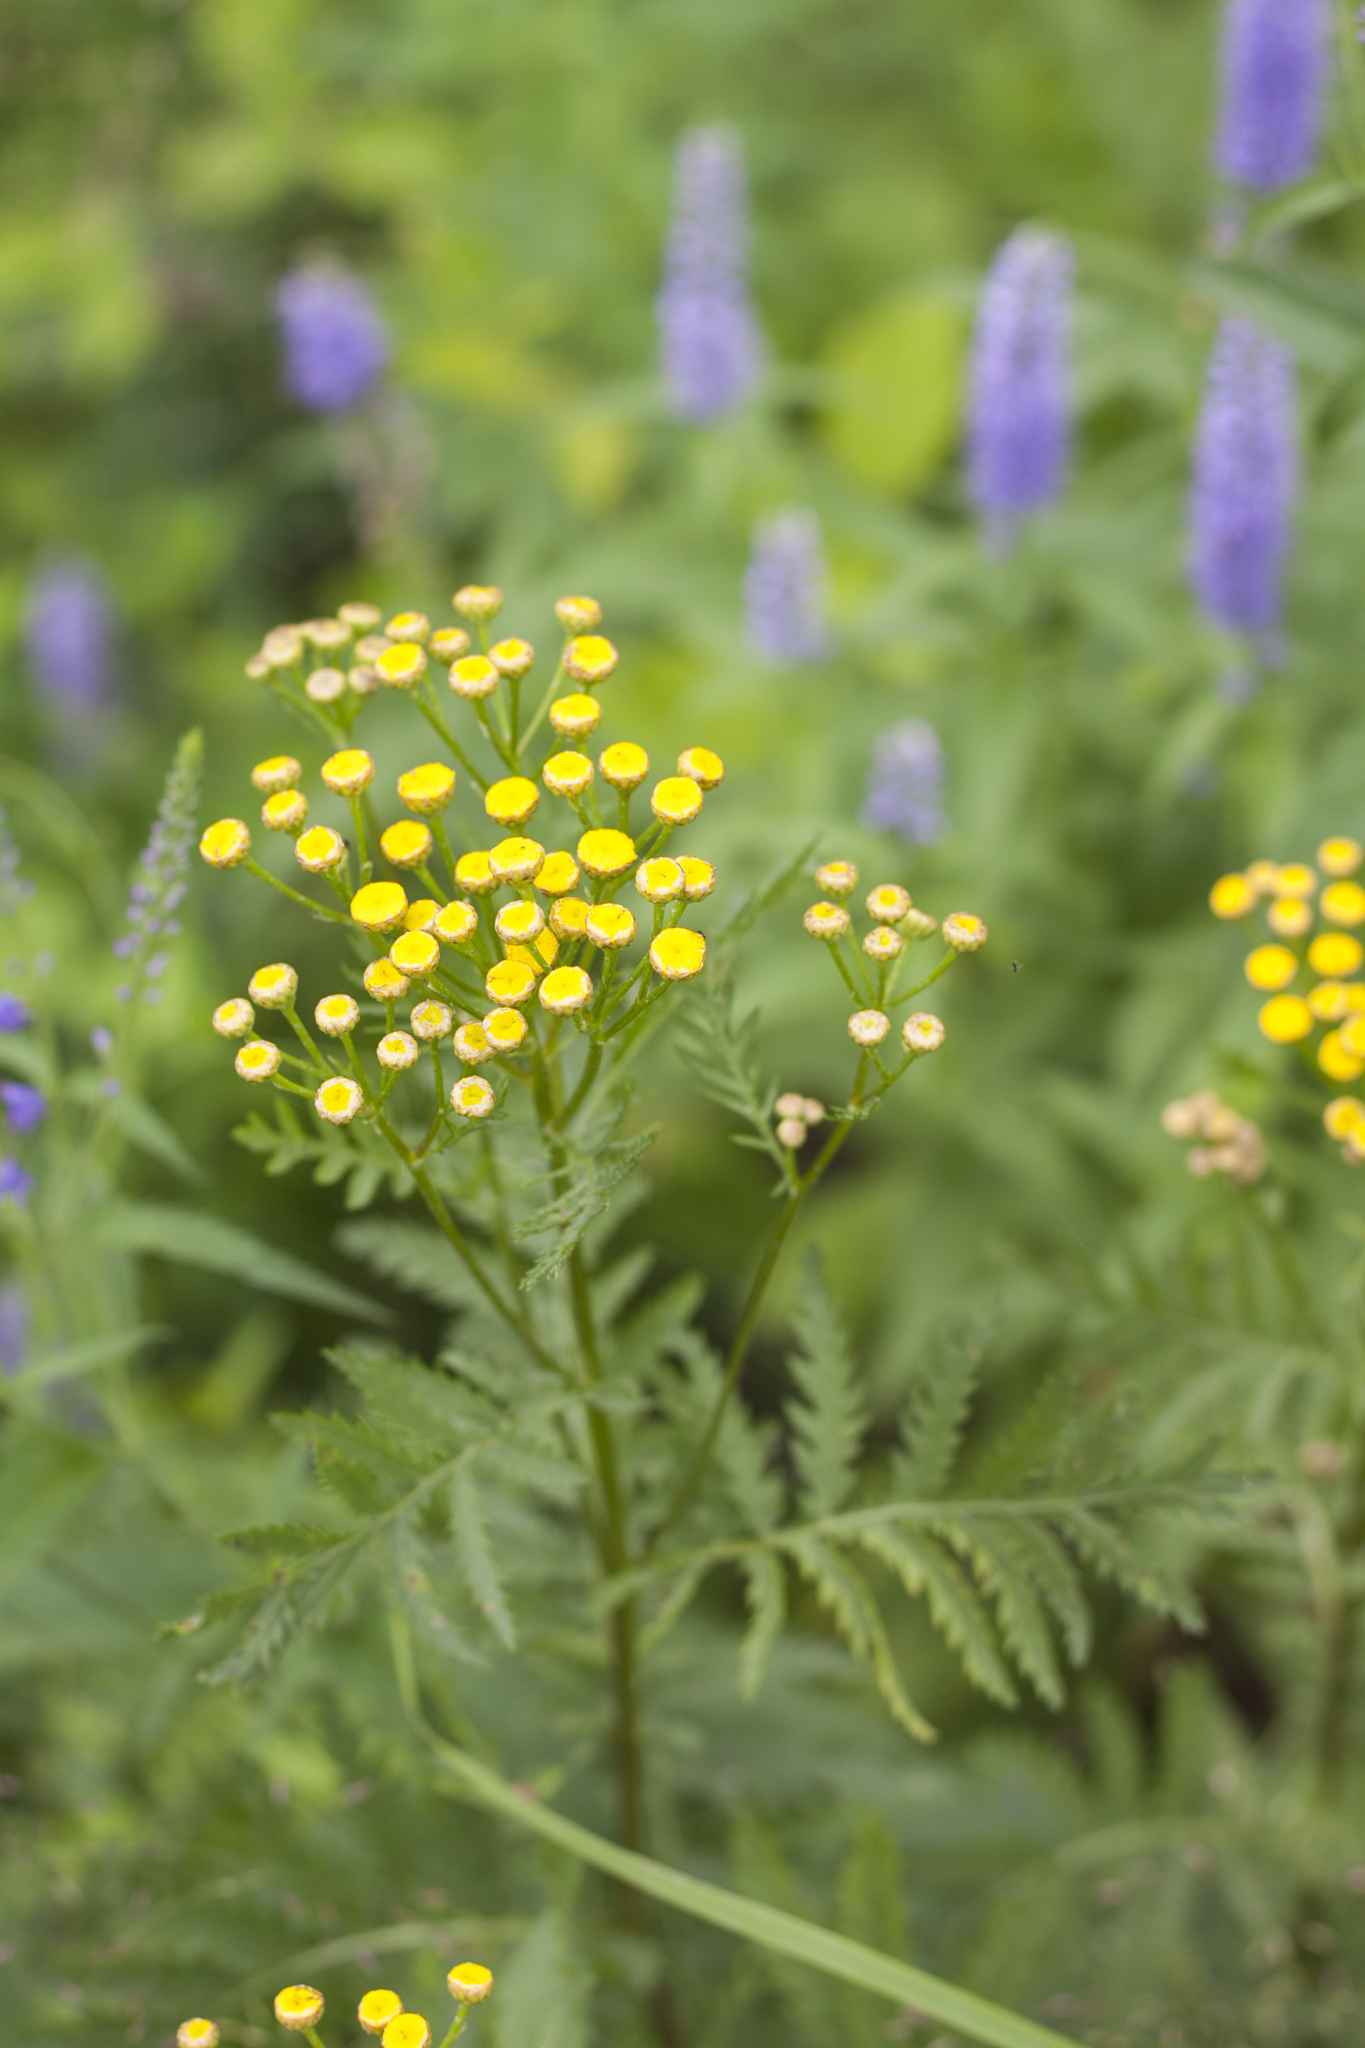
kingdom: Plantae
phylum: Tracheophyta
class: Magnoliopsida
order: Asterales
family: Asteraceae
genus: Tanacetum
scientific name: Tanacetum vulgare
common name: Common tansy
